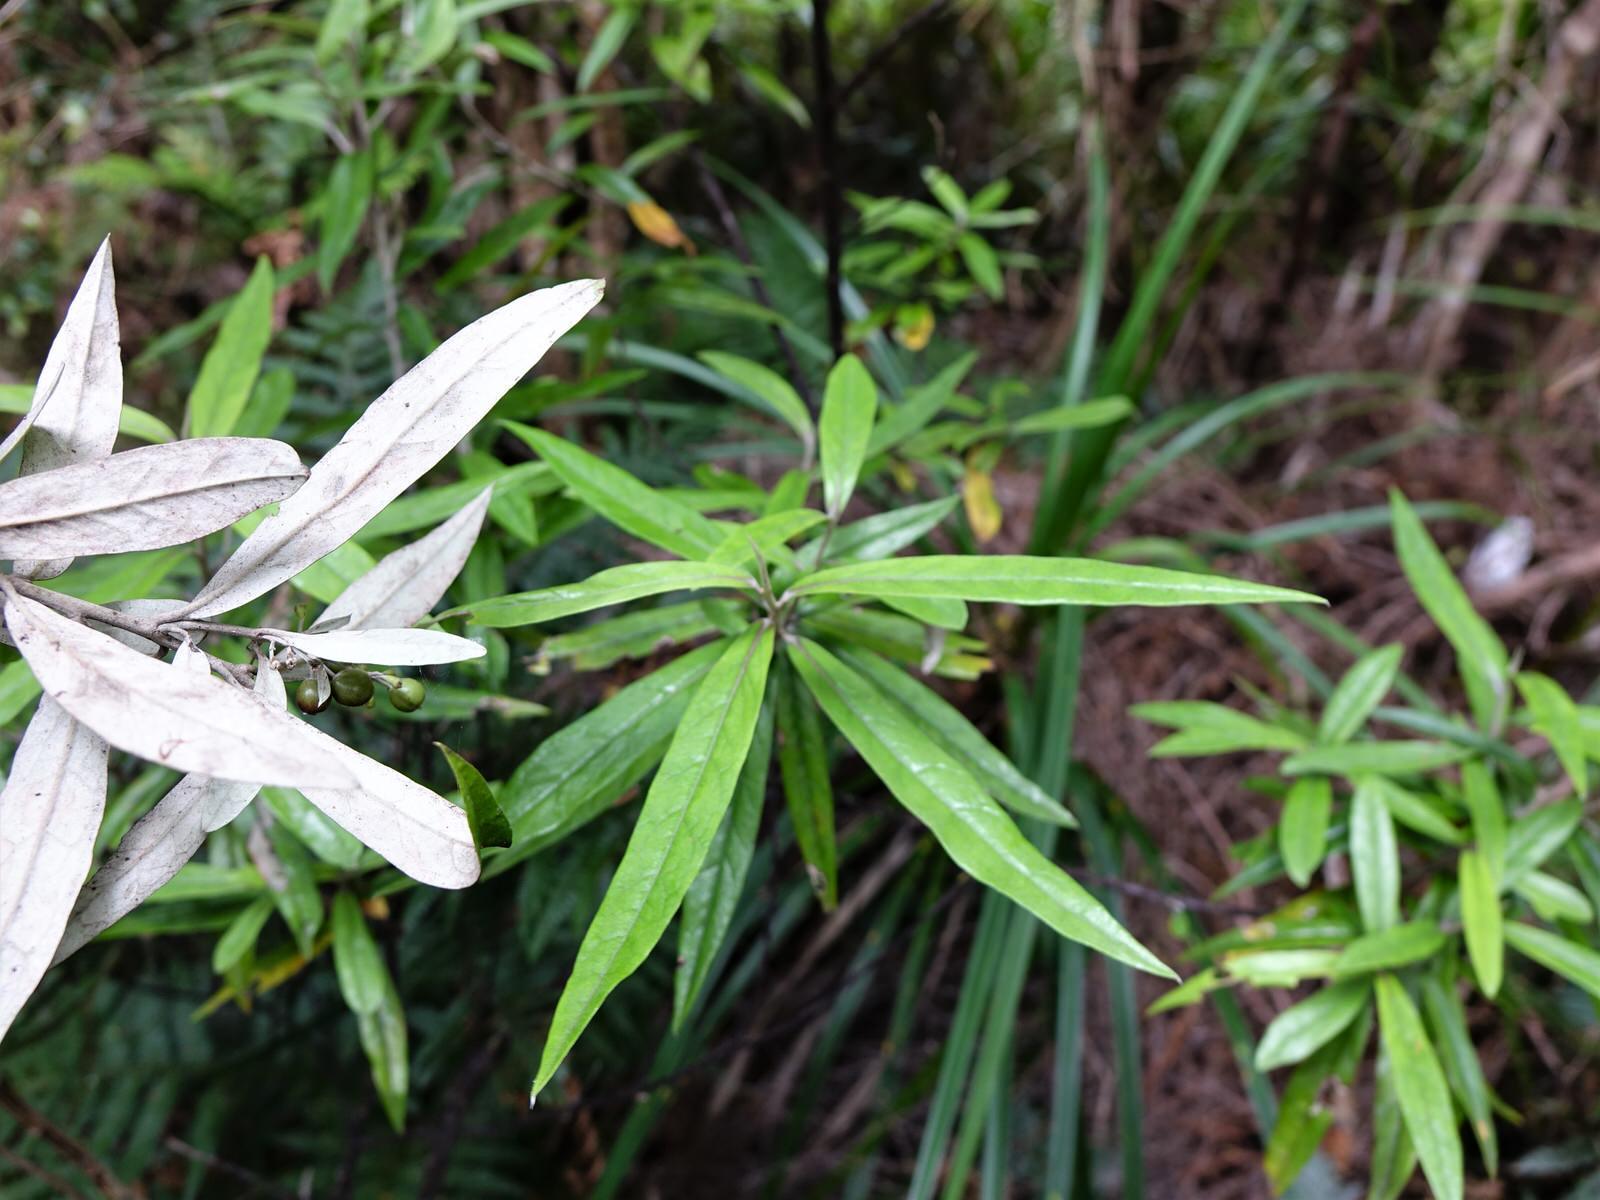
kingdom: Plantae
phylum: Tracheophyta
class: Magnoliopsida
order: Asterales
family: Argophyllaceae
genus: Corokia
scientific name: Corokia buddleioides
